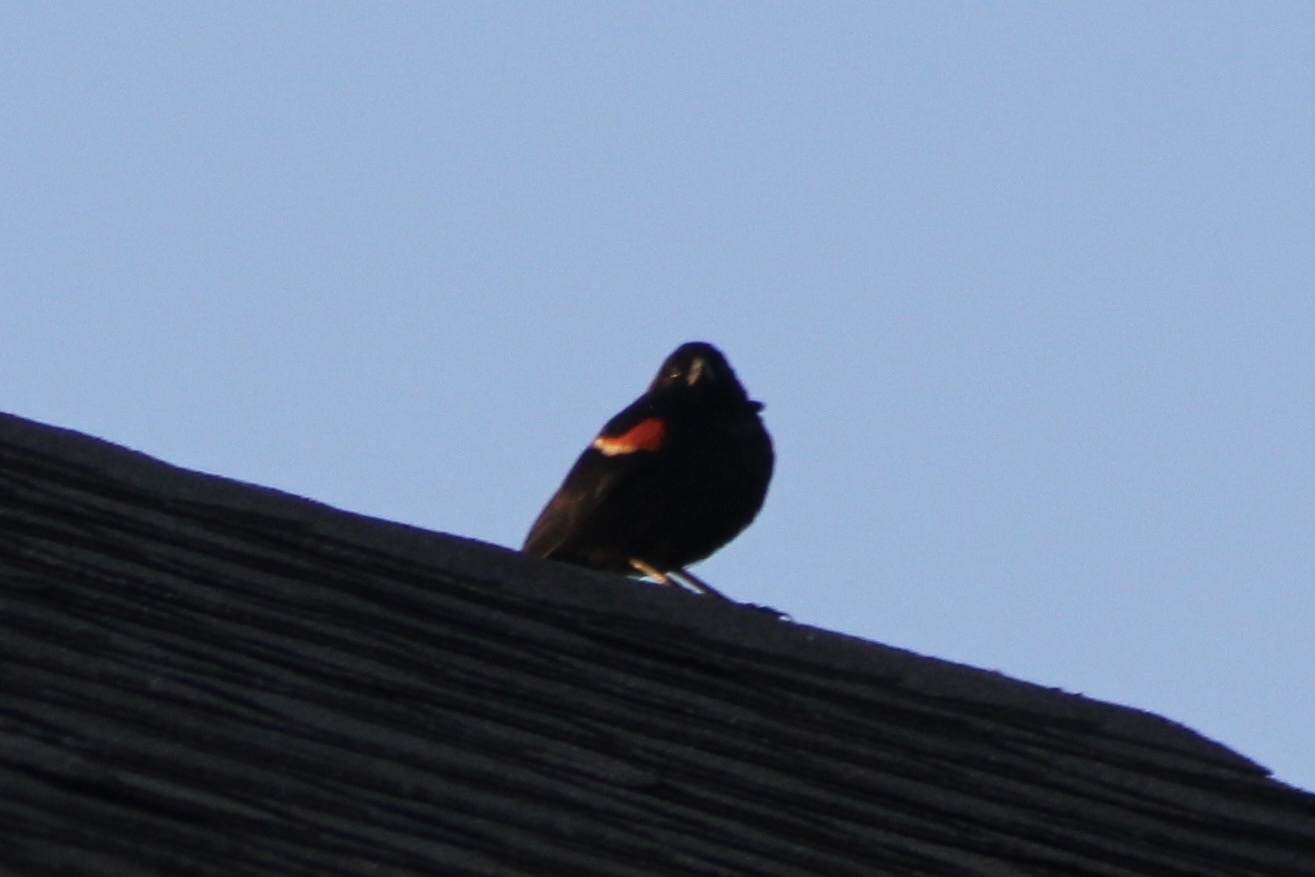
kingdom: Animalia
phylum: Chordata
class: Aves
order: Passeriformes
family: Icteridae
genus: Agelaius
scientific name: Agelaius phoeniceus
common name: Red-winged blackbird
